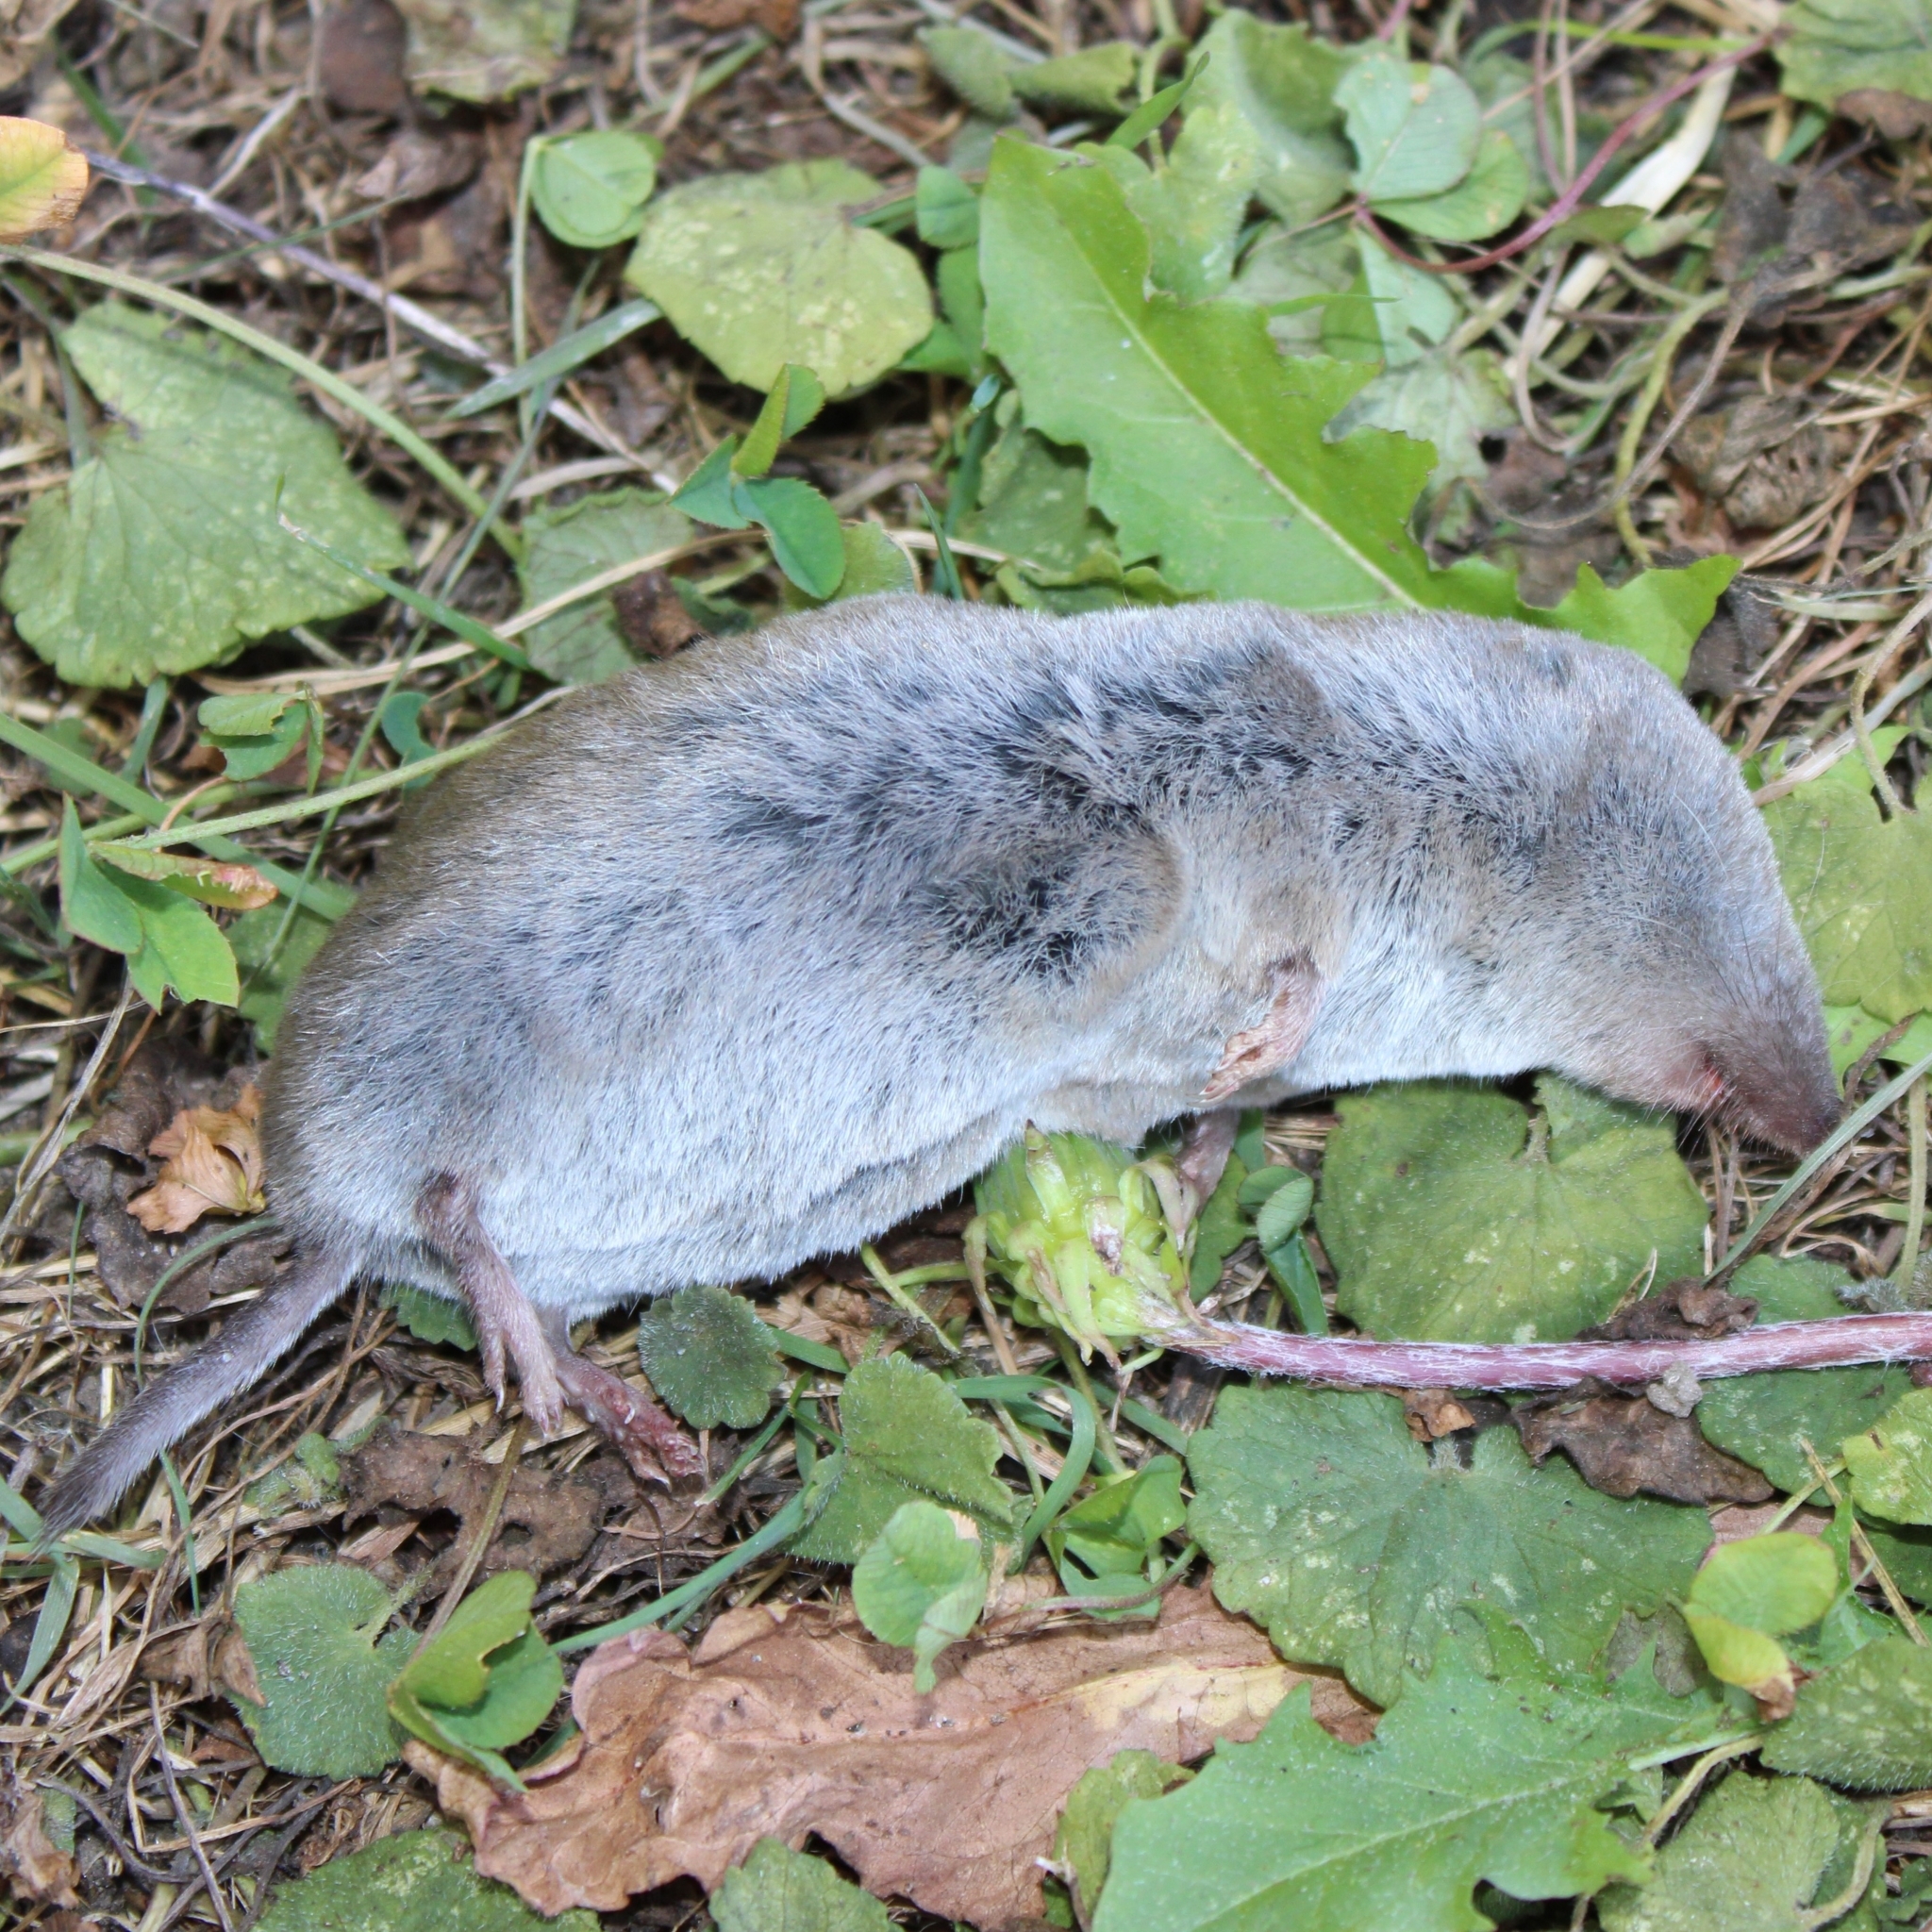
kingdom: Animalia
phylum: Chordata
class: Mammalia
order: Soricomorpha
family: Soricidae
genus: Blarina
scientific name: Blarina brevicauda
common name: Northern short-tailed shrew
